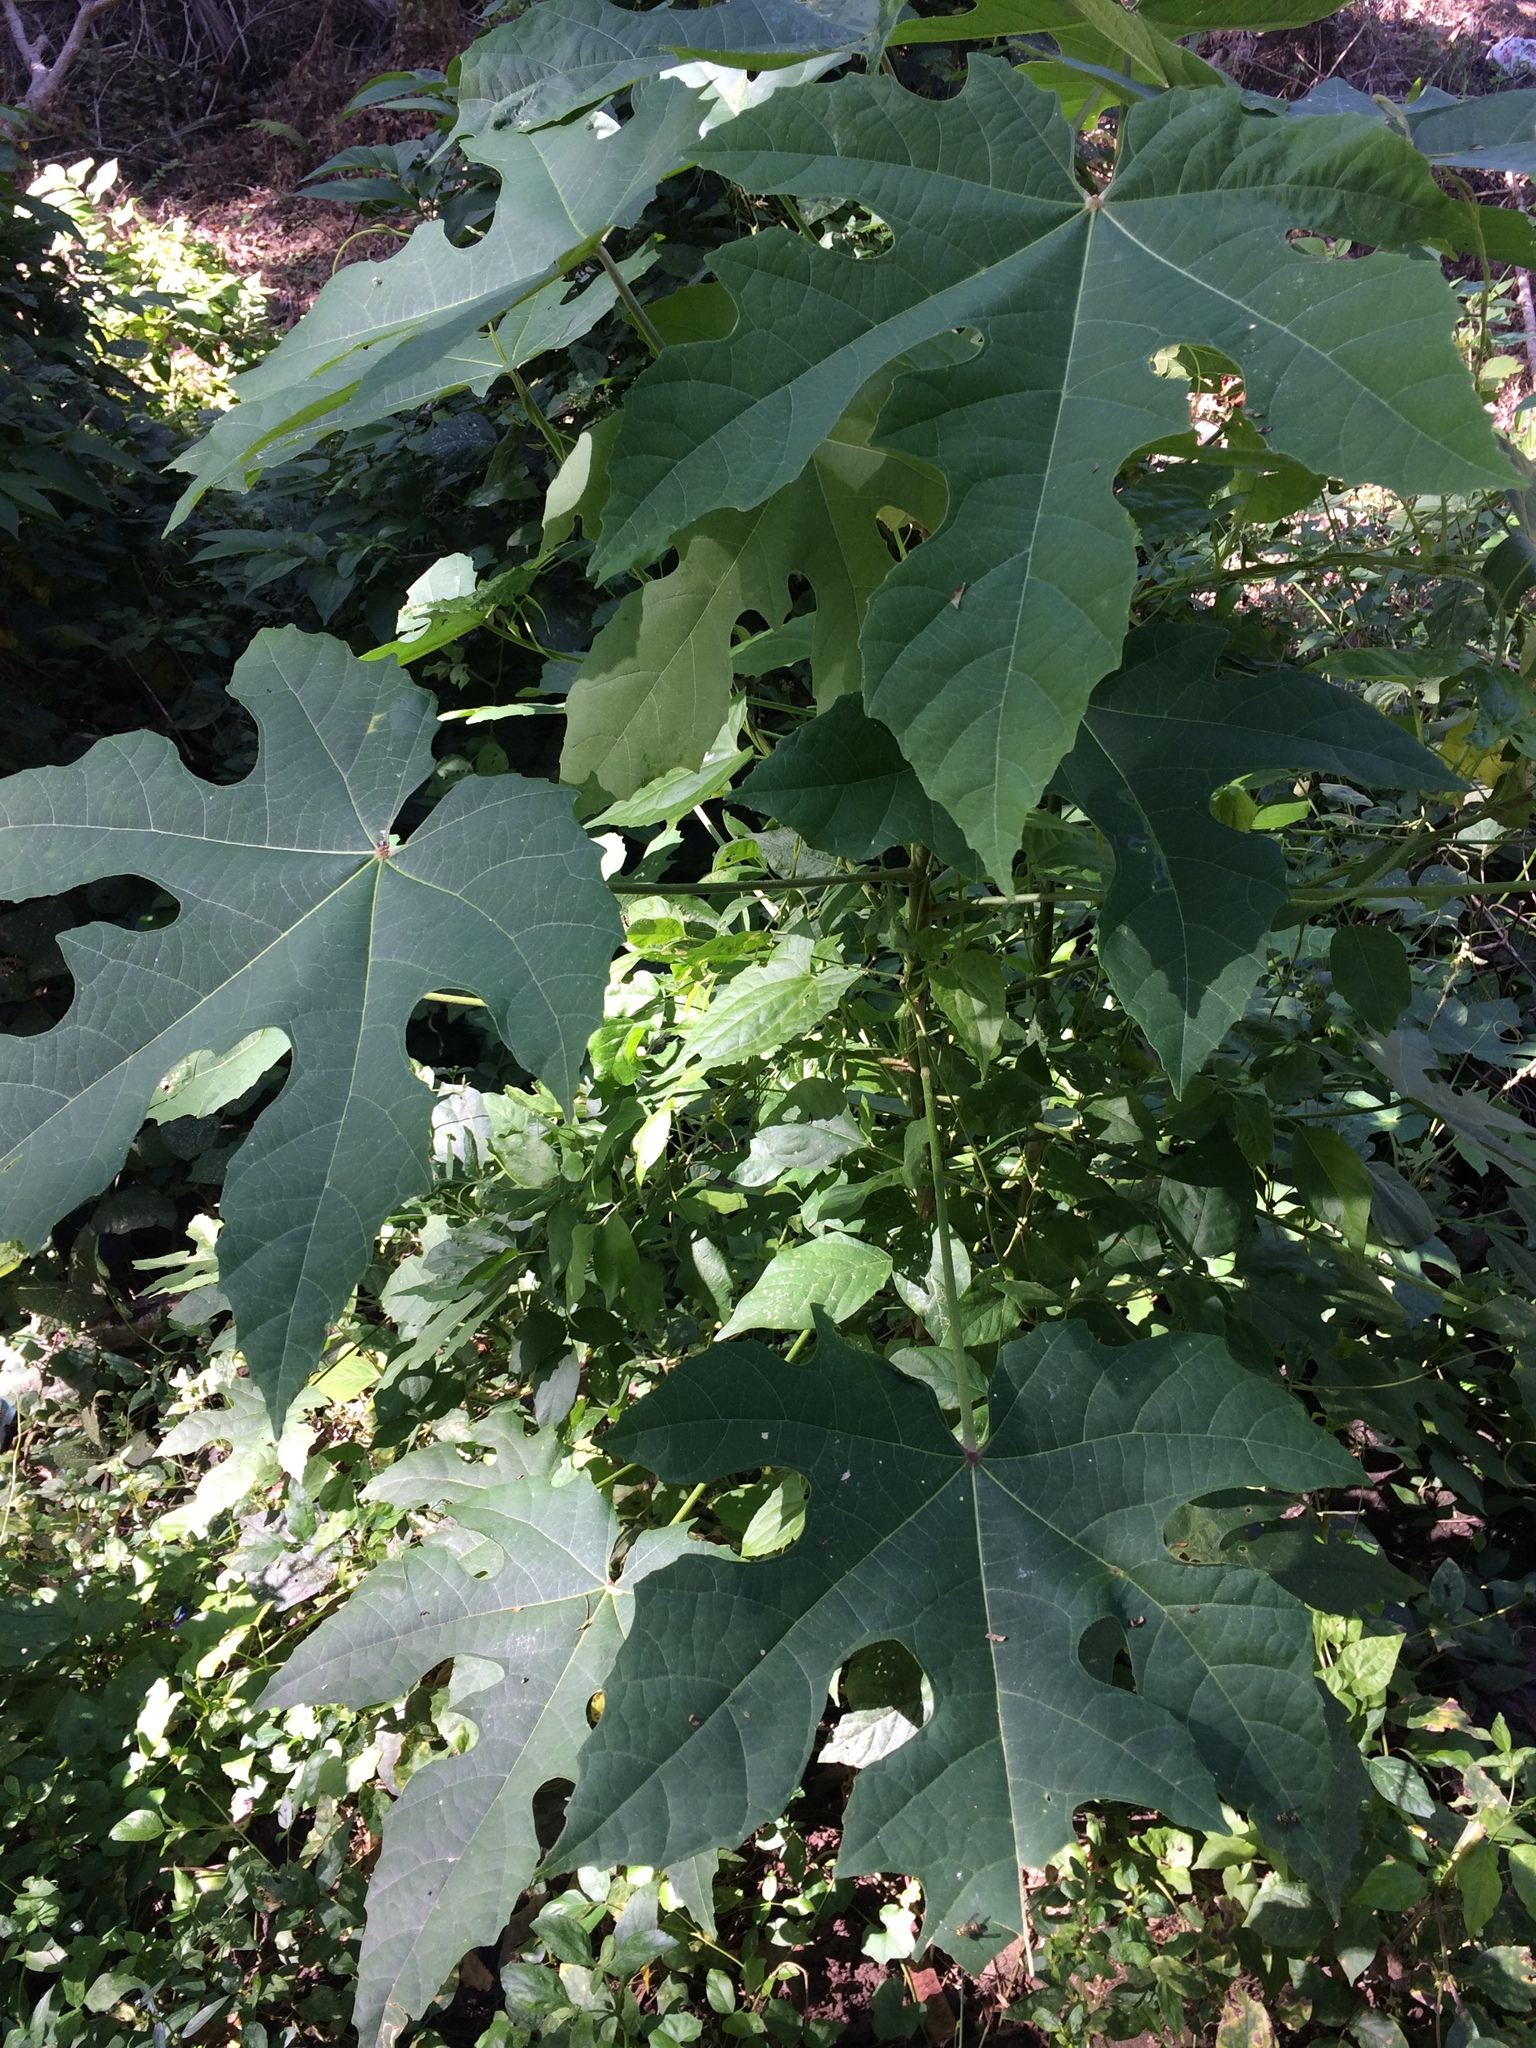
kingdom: Plantae
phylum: Tracheophyta
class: Magnoliopsida
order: Malpighiales
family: Euphorbiaceae
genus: Melanolepis
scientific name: Melanolepis multiglandulosa
